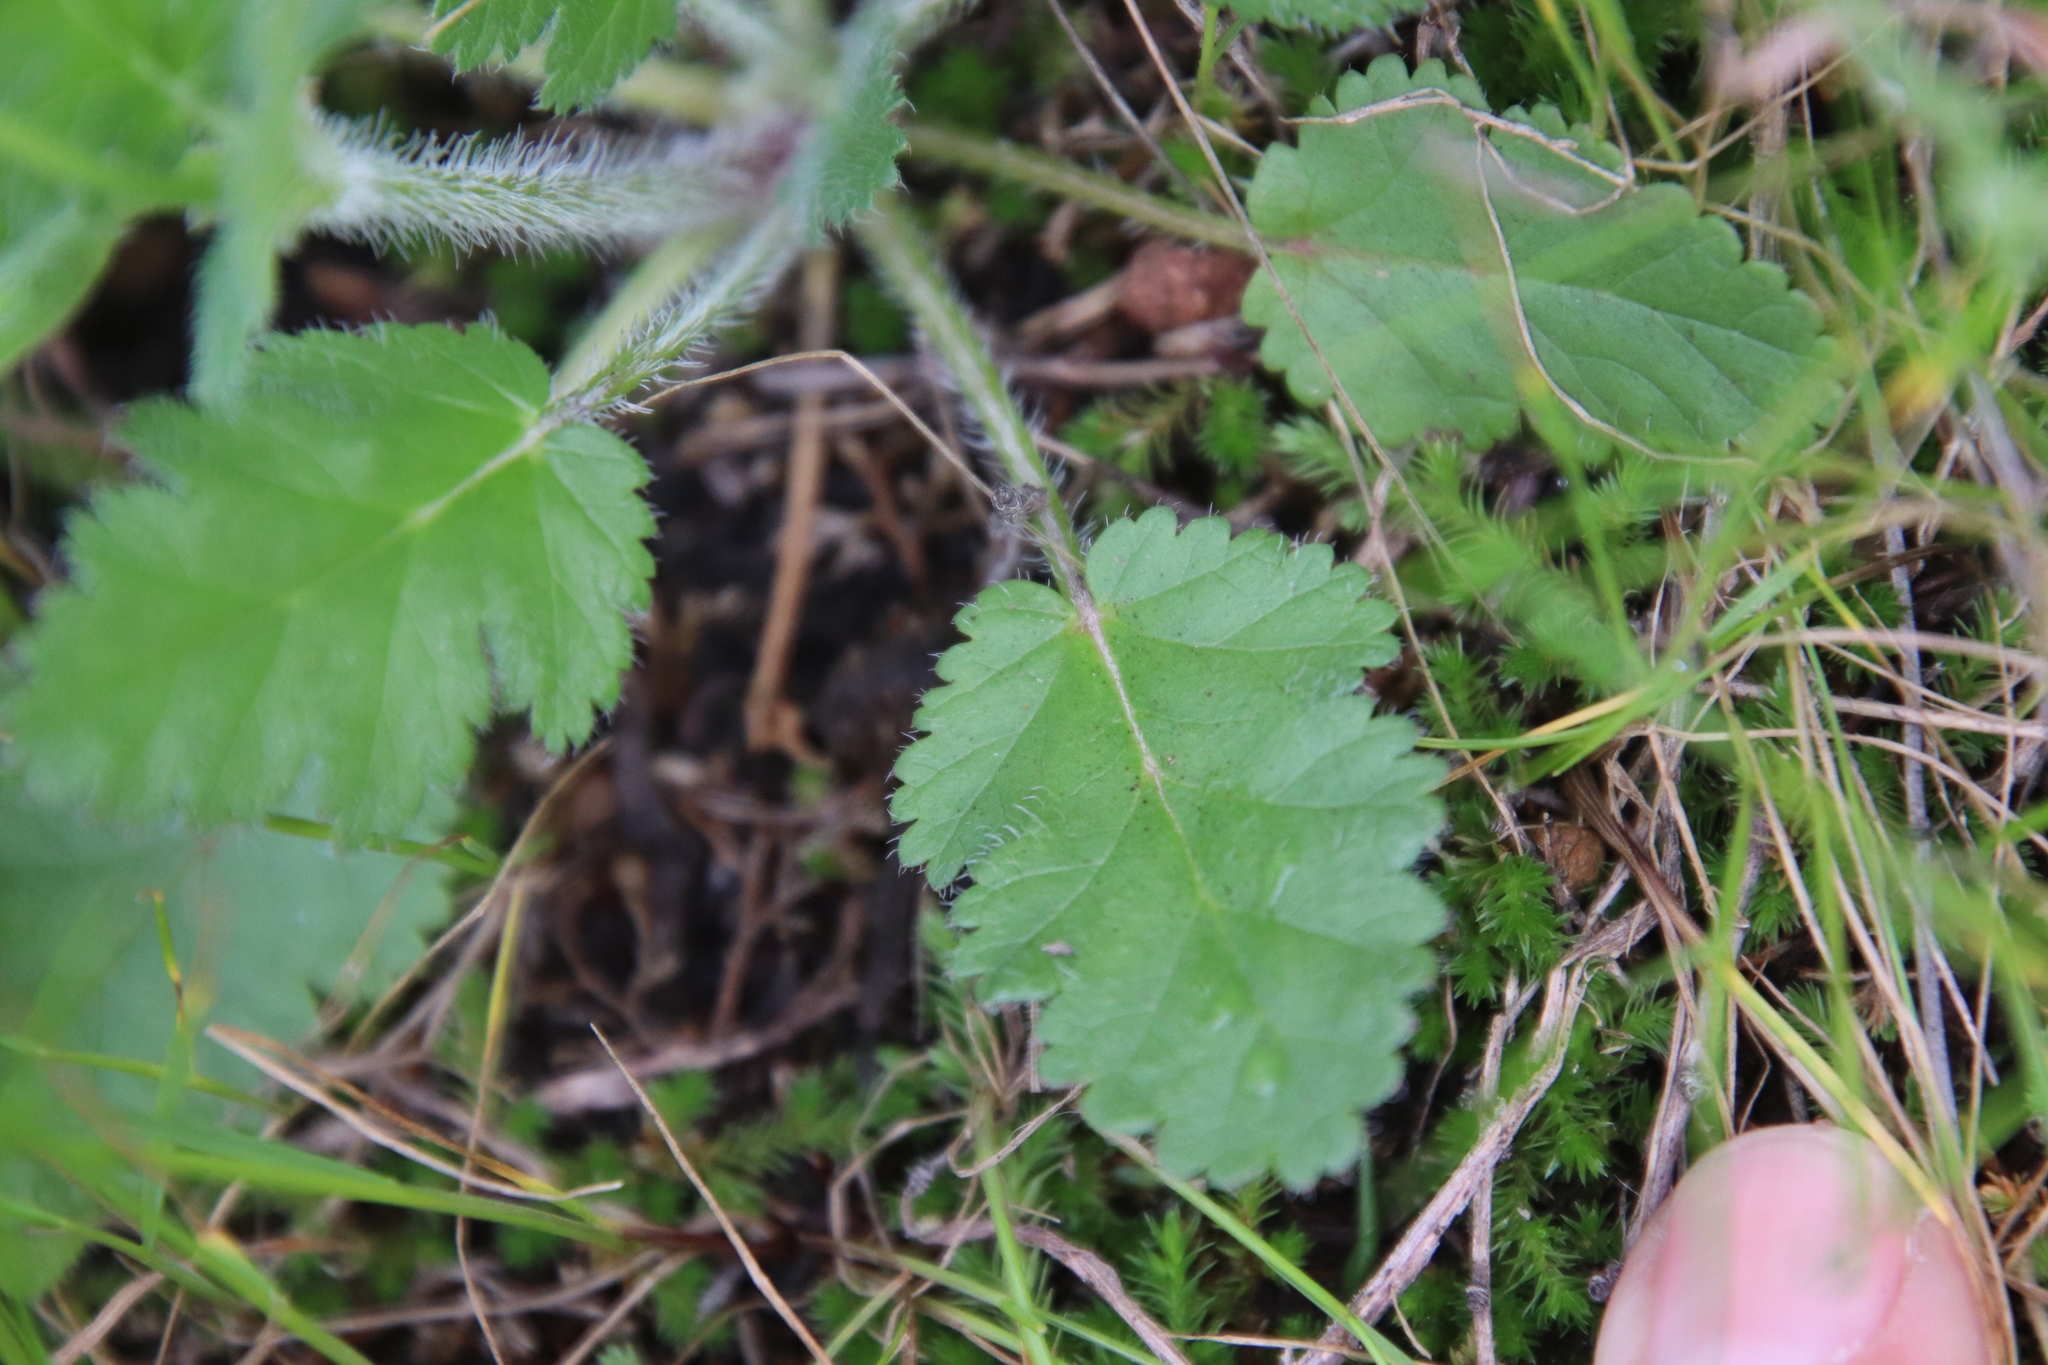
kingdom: Plantae
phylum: Tracheophyta
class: Magnoliopsida
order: Geraniales
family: Geraniaceae
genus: Erodium
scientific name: Erodium brachycarpum
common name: Hairy-pitted stork's-bill
